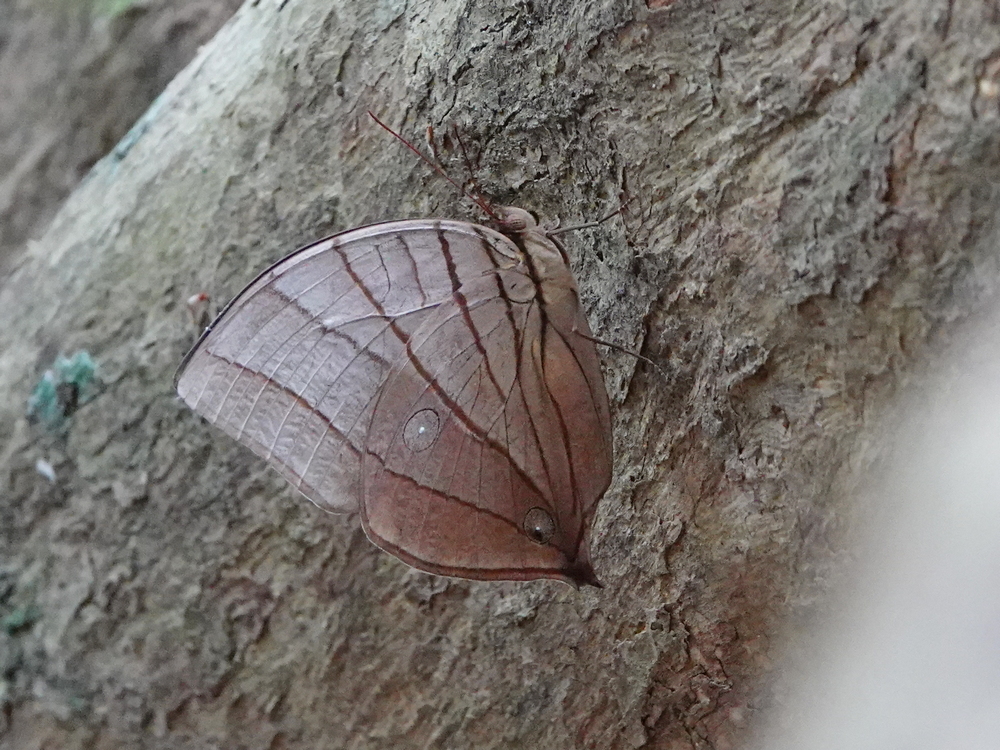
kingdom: Animalia
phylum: Arthropoda
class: Insecta
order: Lepidoptera
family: Nymphalidae
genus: Amathuxidia
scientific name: Amathuxidia amythaon
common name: Koh-i-noor
